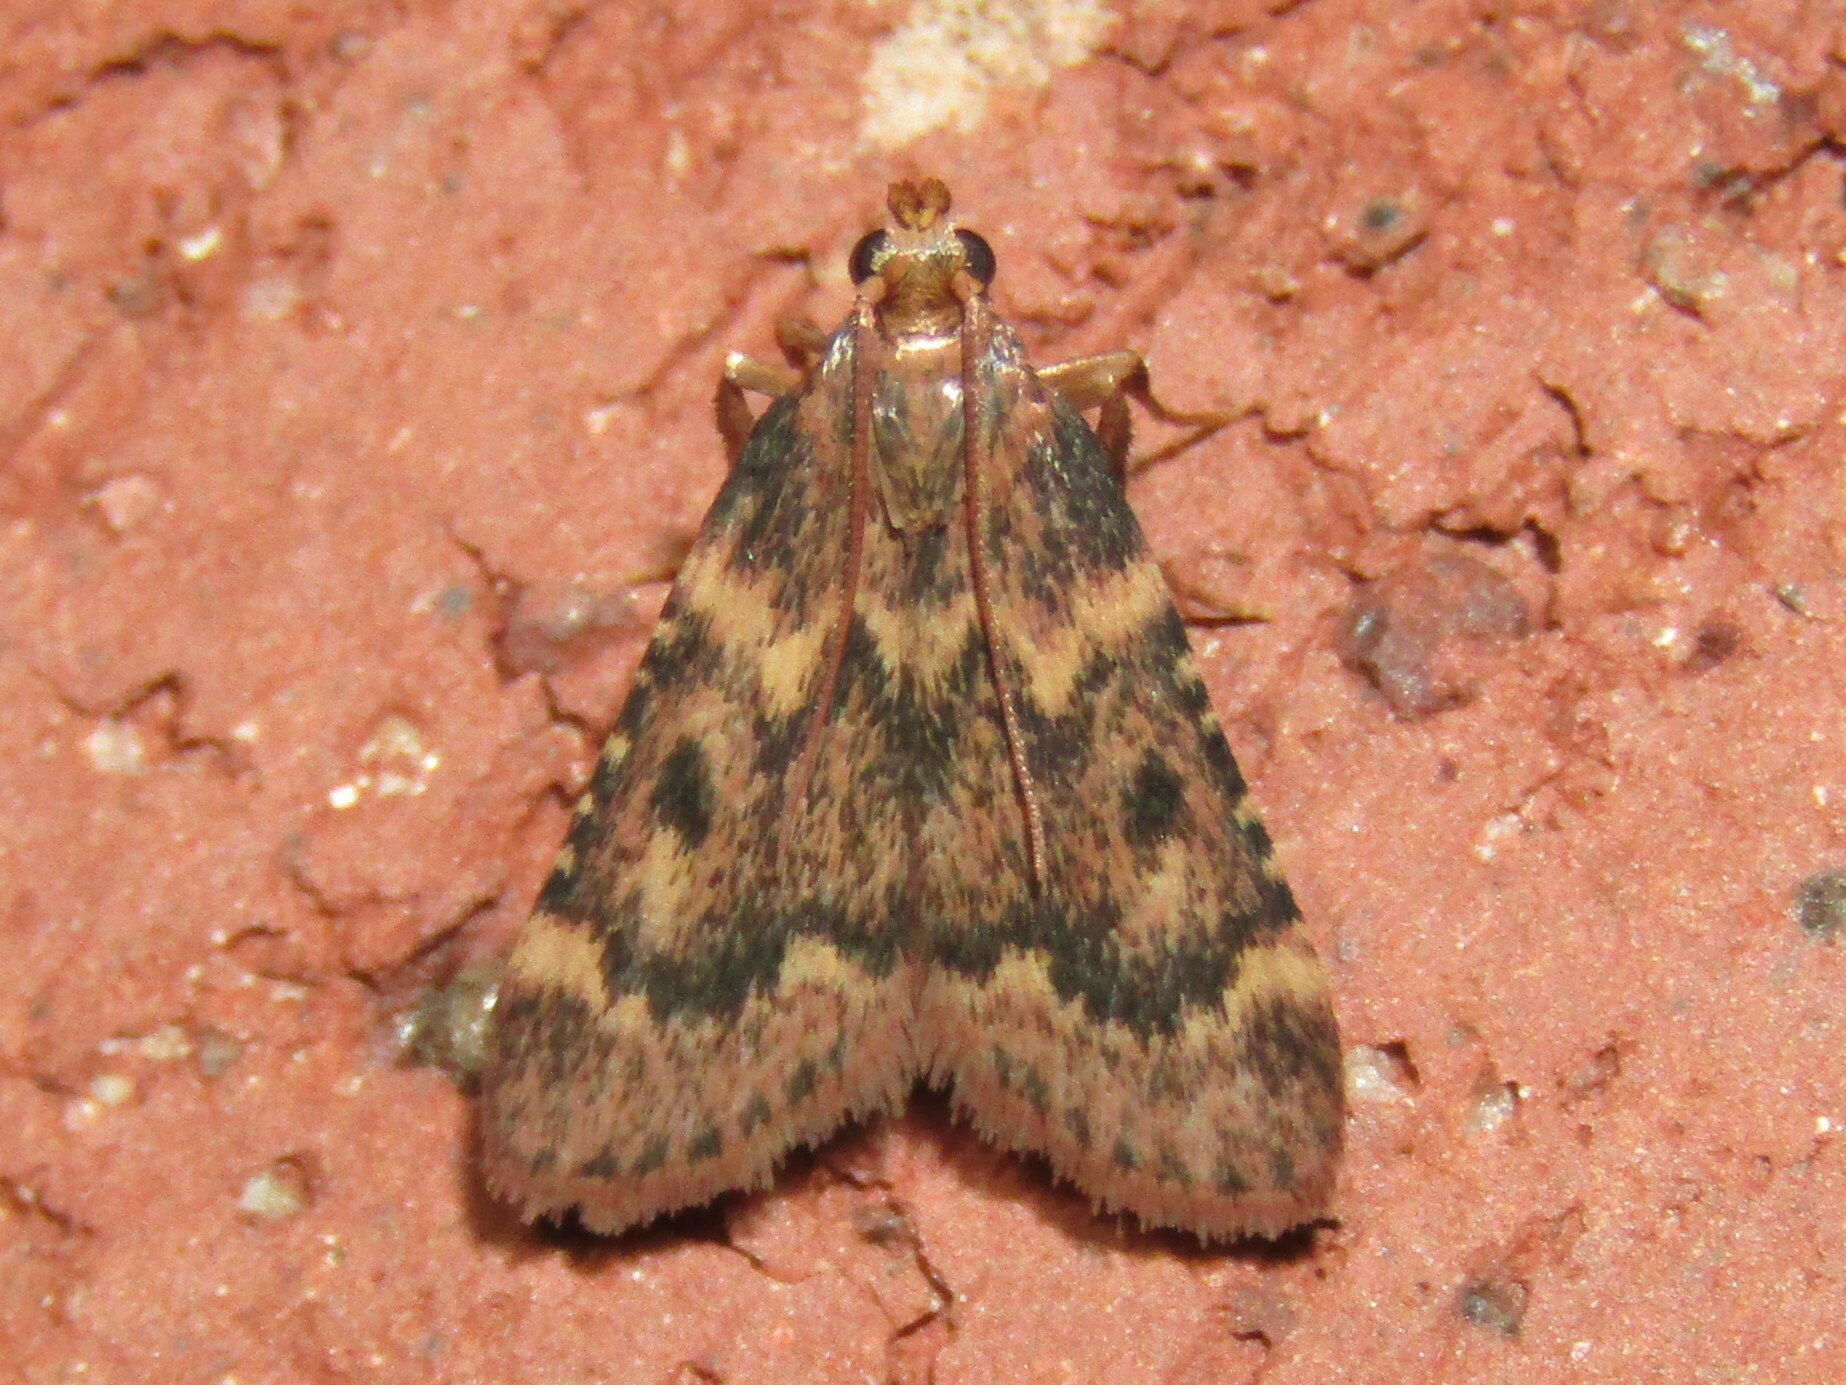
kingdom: Animalia
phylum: Arthropoda
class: Insecta
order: Lepidoptera
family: Pyralidae
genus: Aglossa
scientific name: Aglossa disciferalis
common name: Pink-masked pyralid moth
